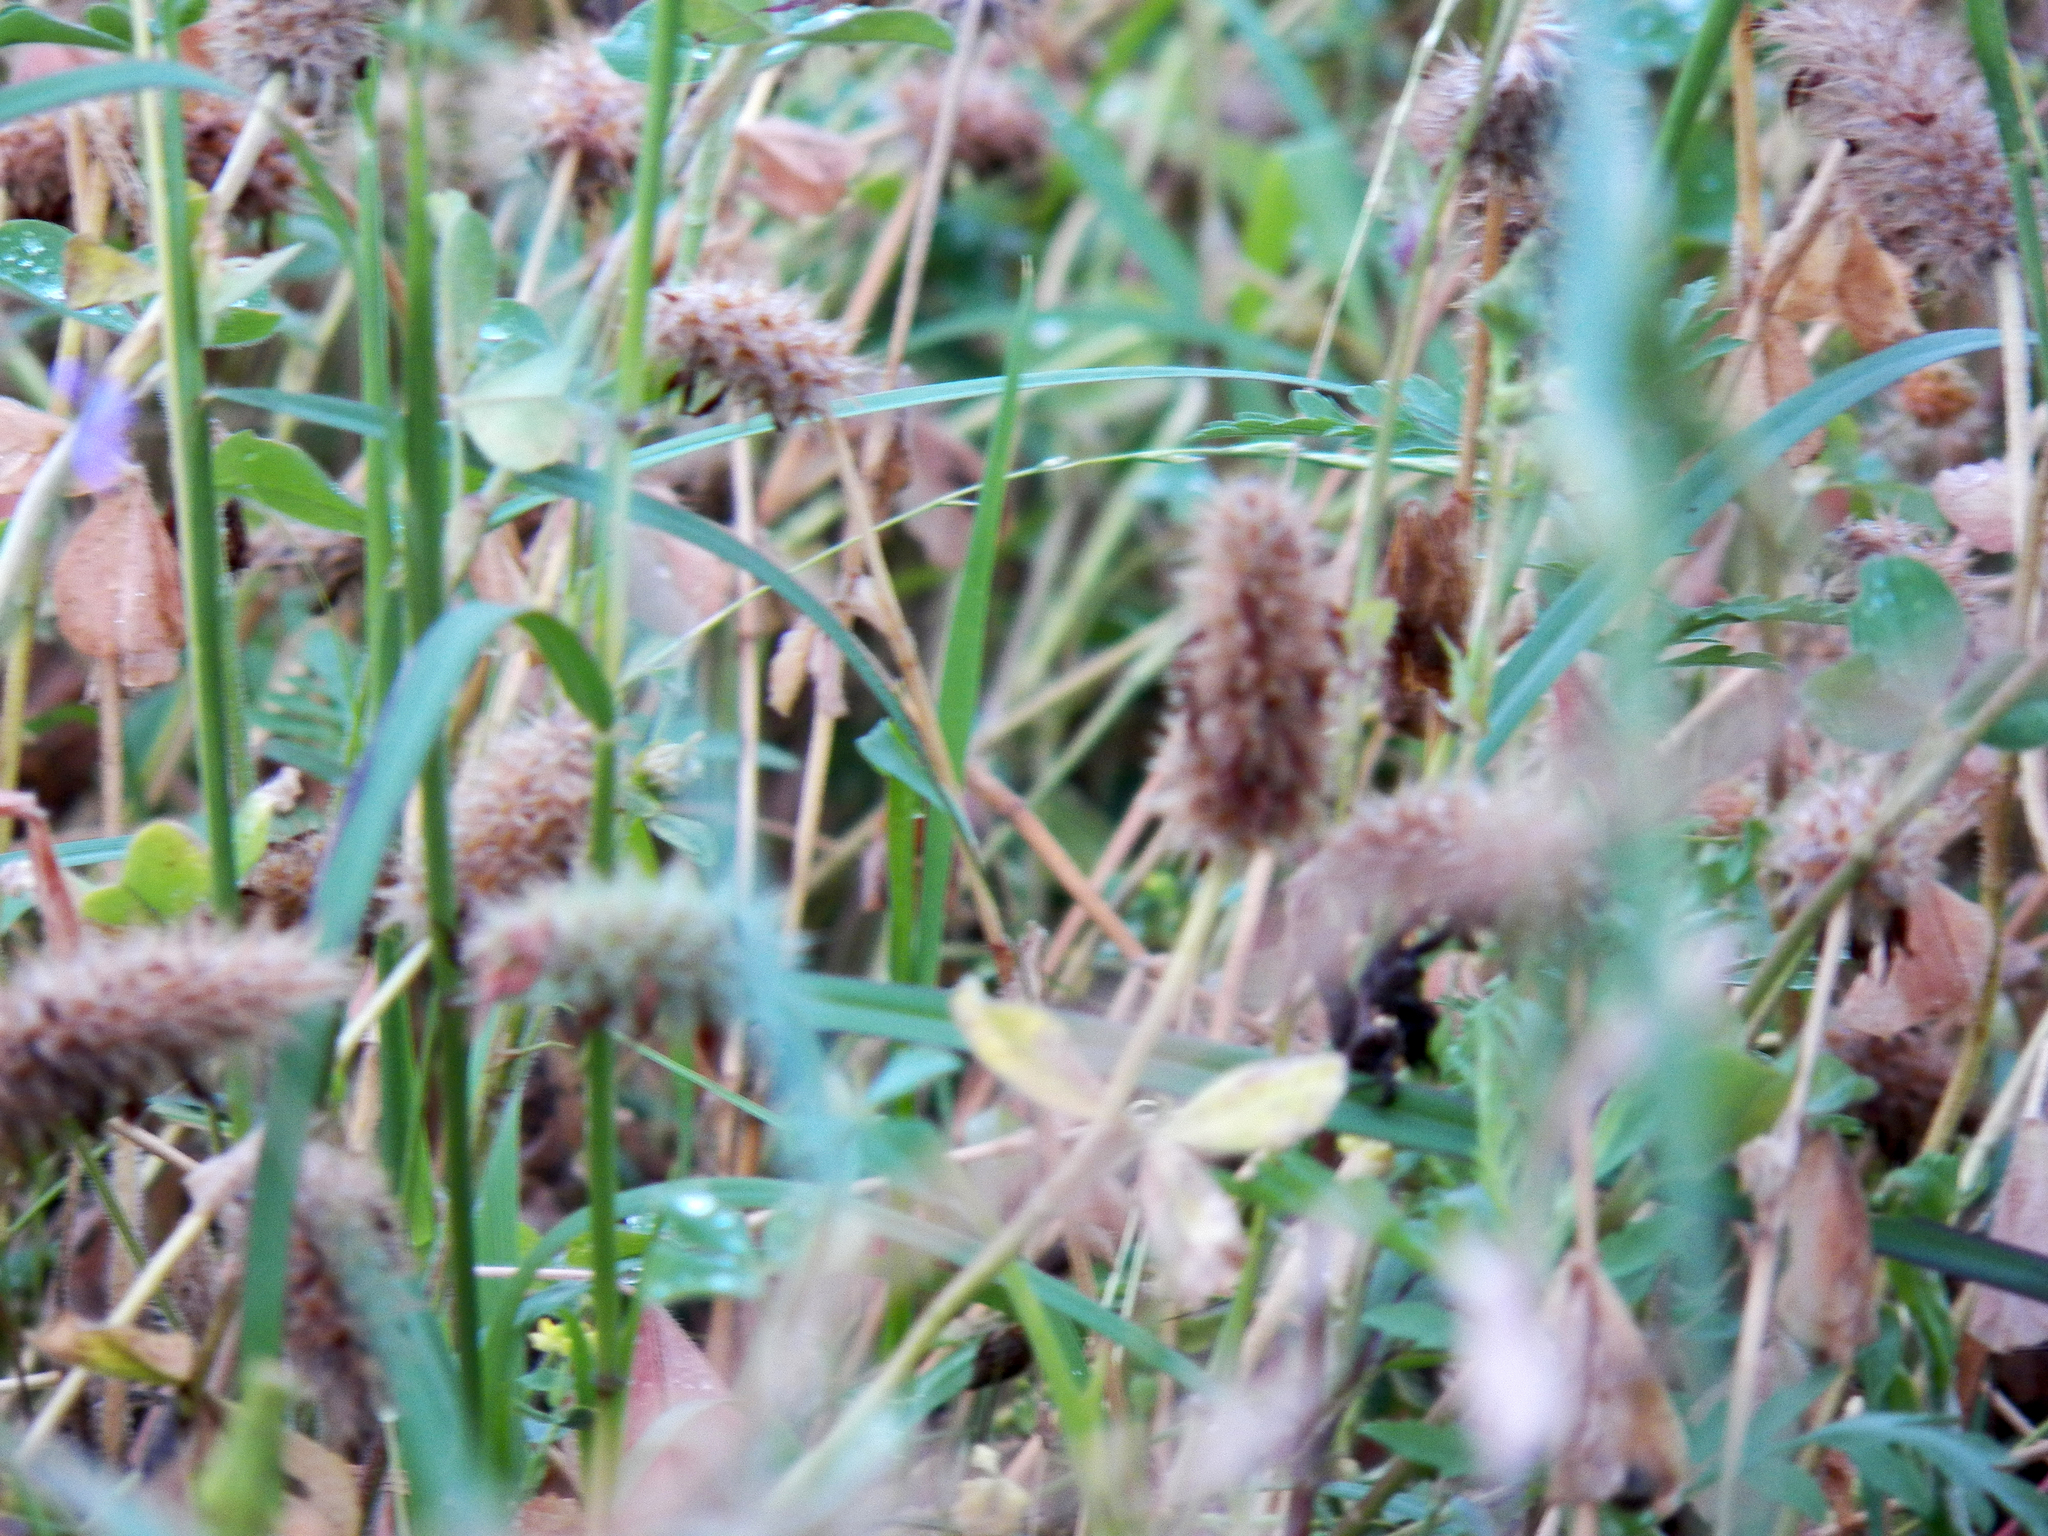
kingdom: Plantae
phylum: Tracheophyta
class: Magnoliopsida
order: Fabales
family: Fabaceae
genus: Trifolium
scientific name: Trifolium incarnatum
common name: Crimson clover
